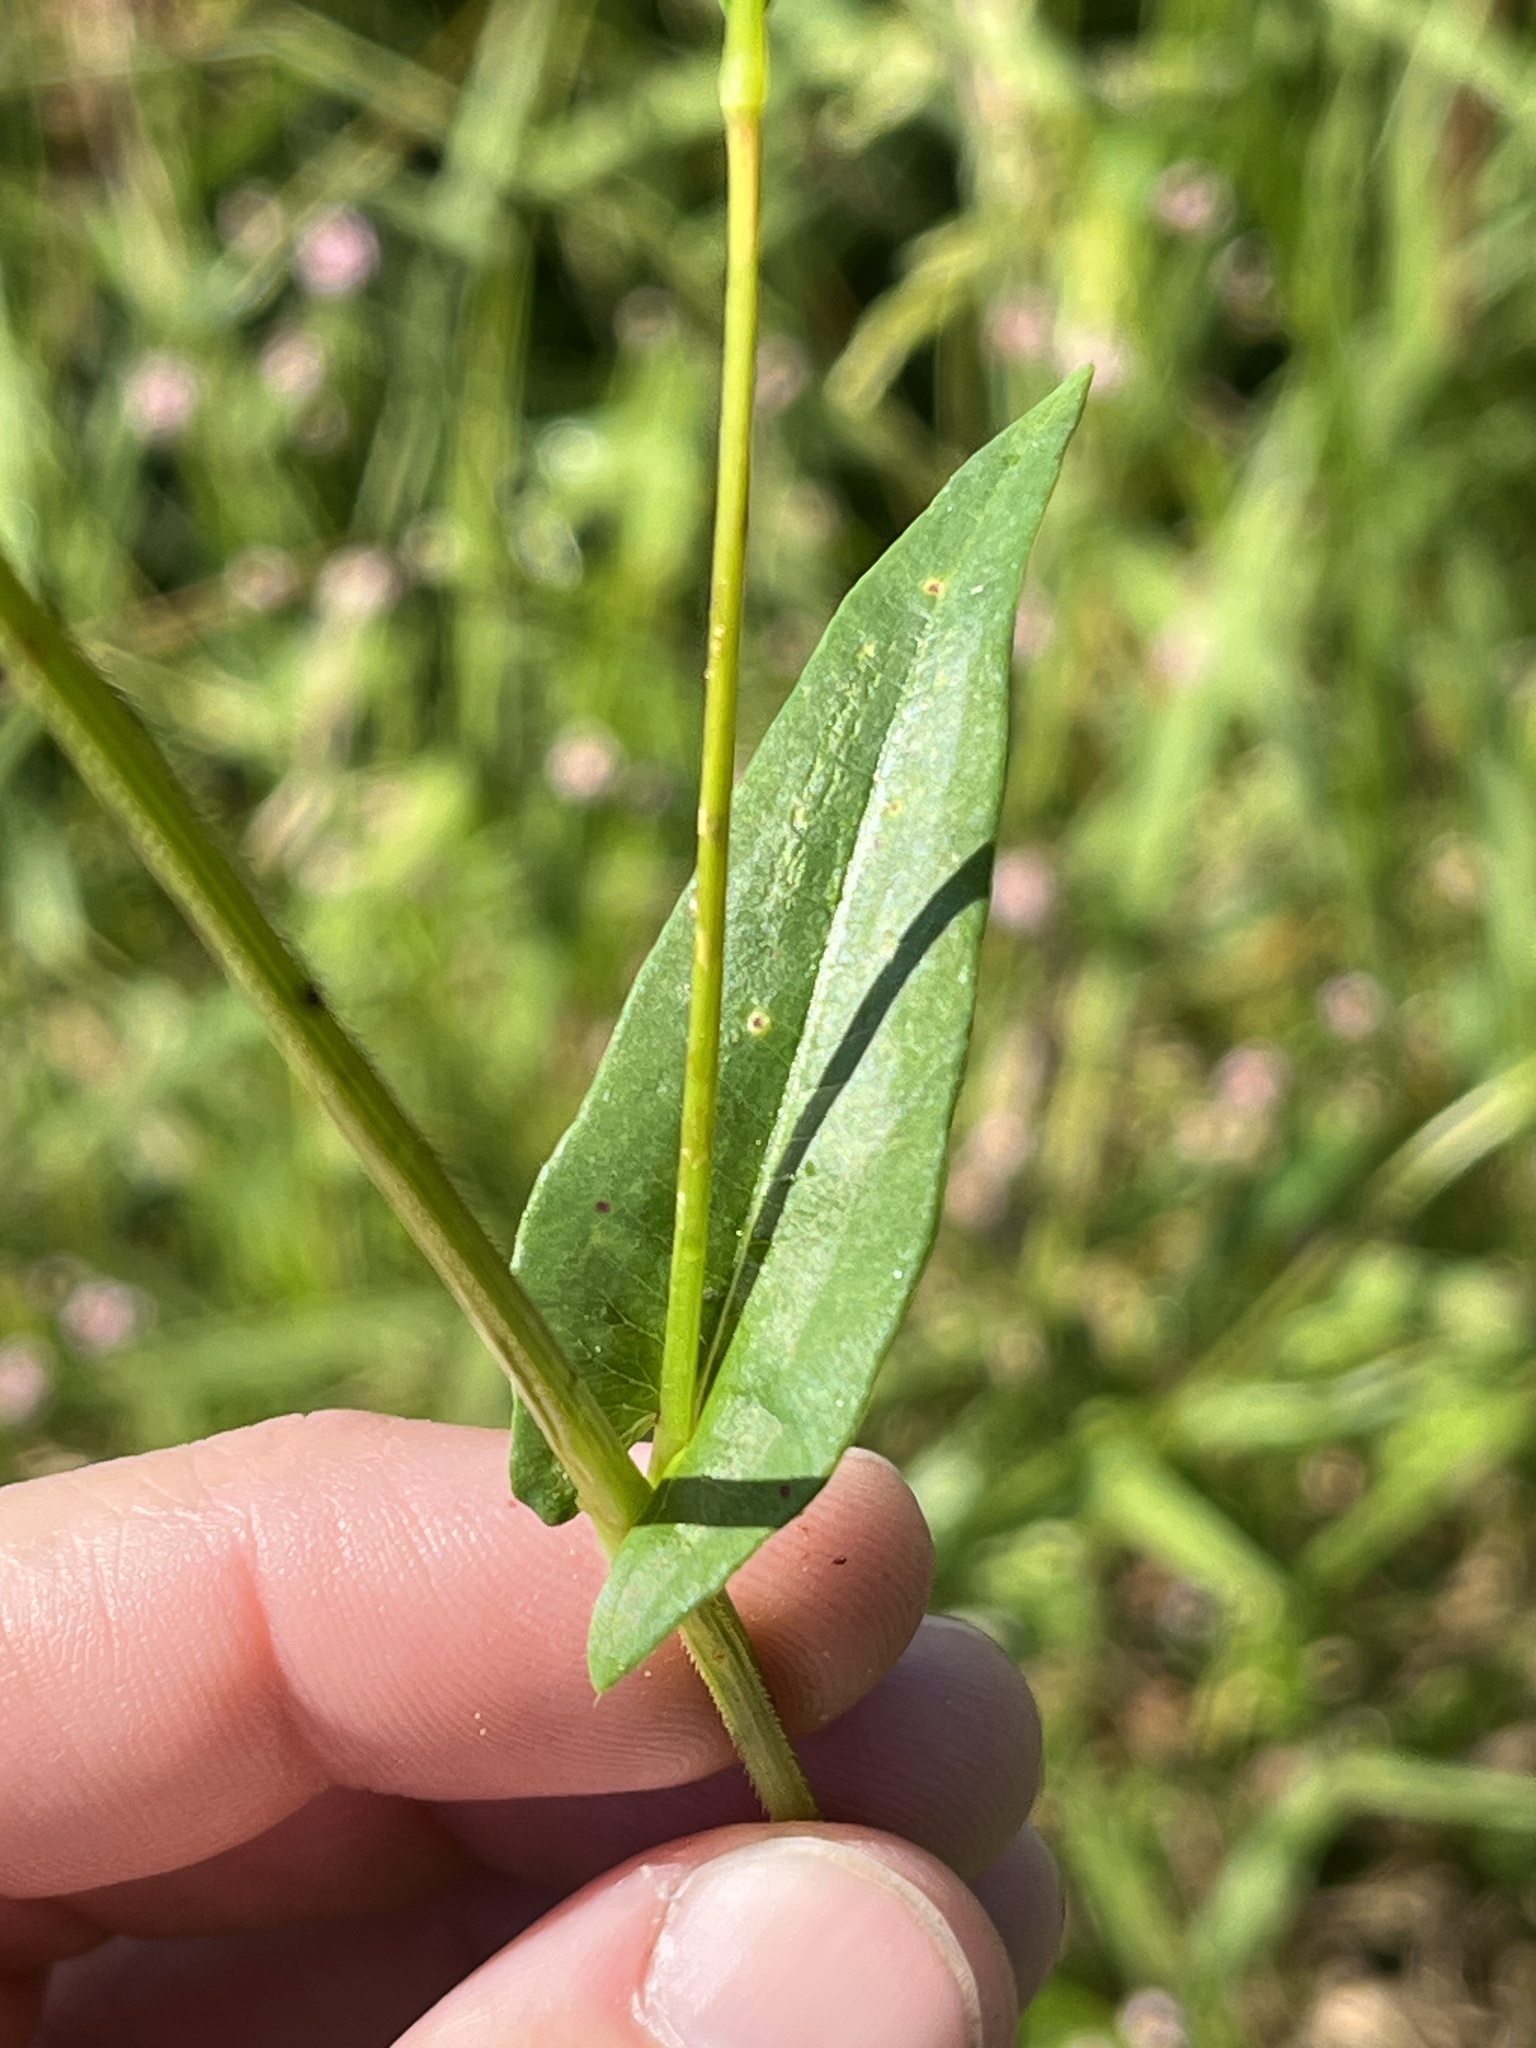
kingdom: Plantae
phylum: Tracheophyta
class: Magnoliopsida
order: Caryophyllales
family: Polygonaceae
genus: Persicaria
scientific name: Persicaria sagittata
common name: American tearthumb
